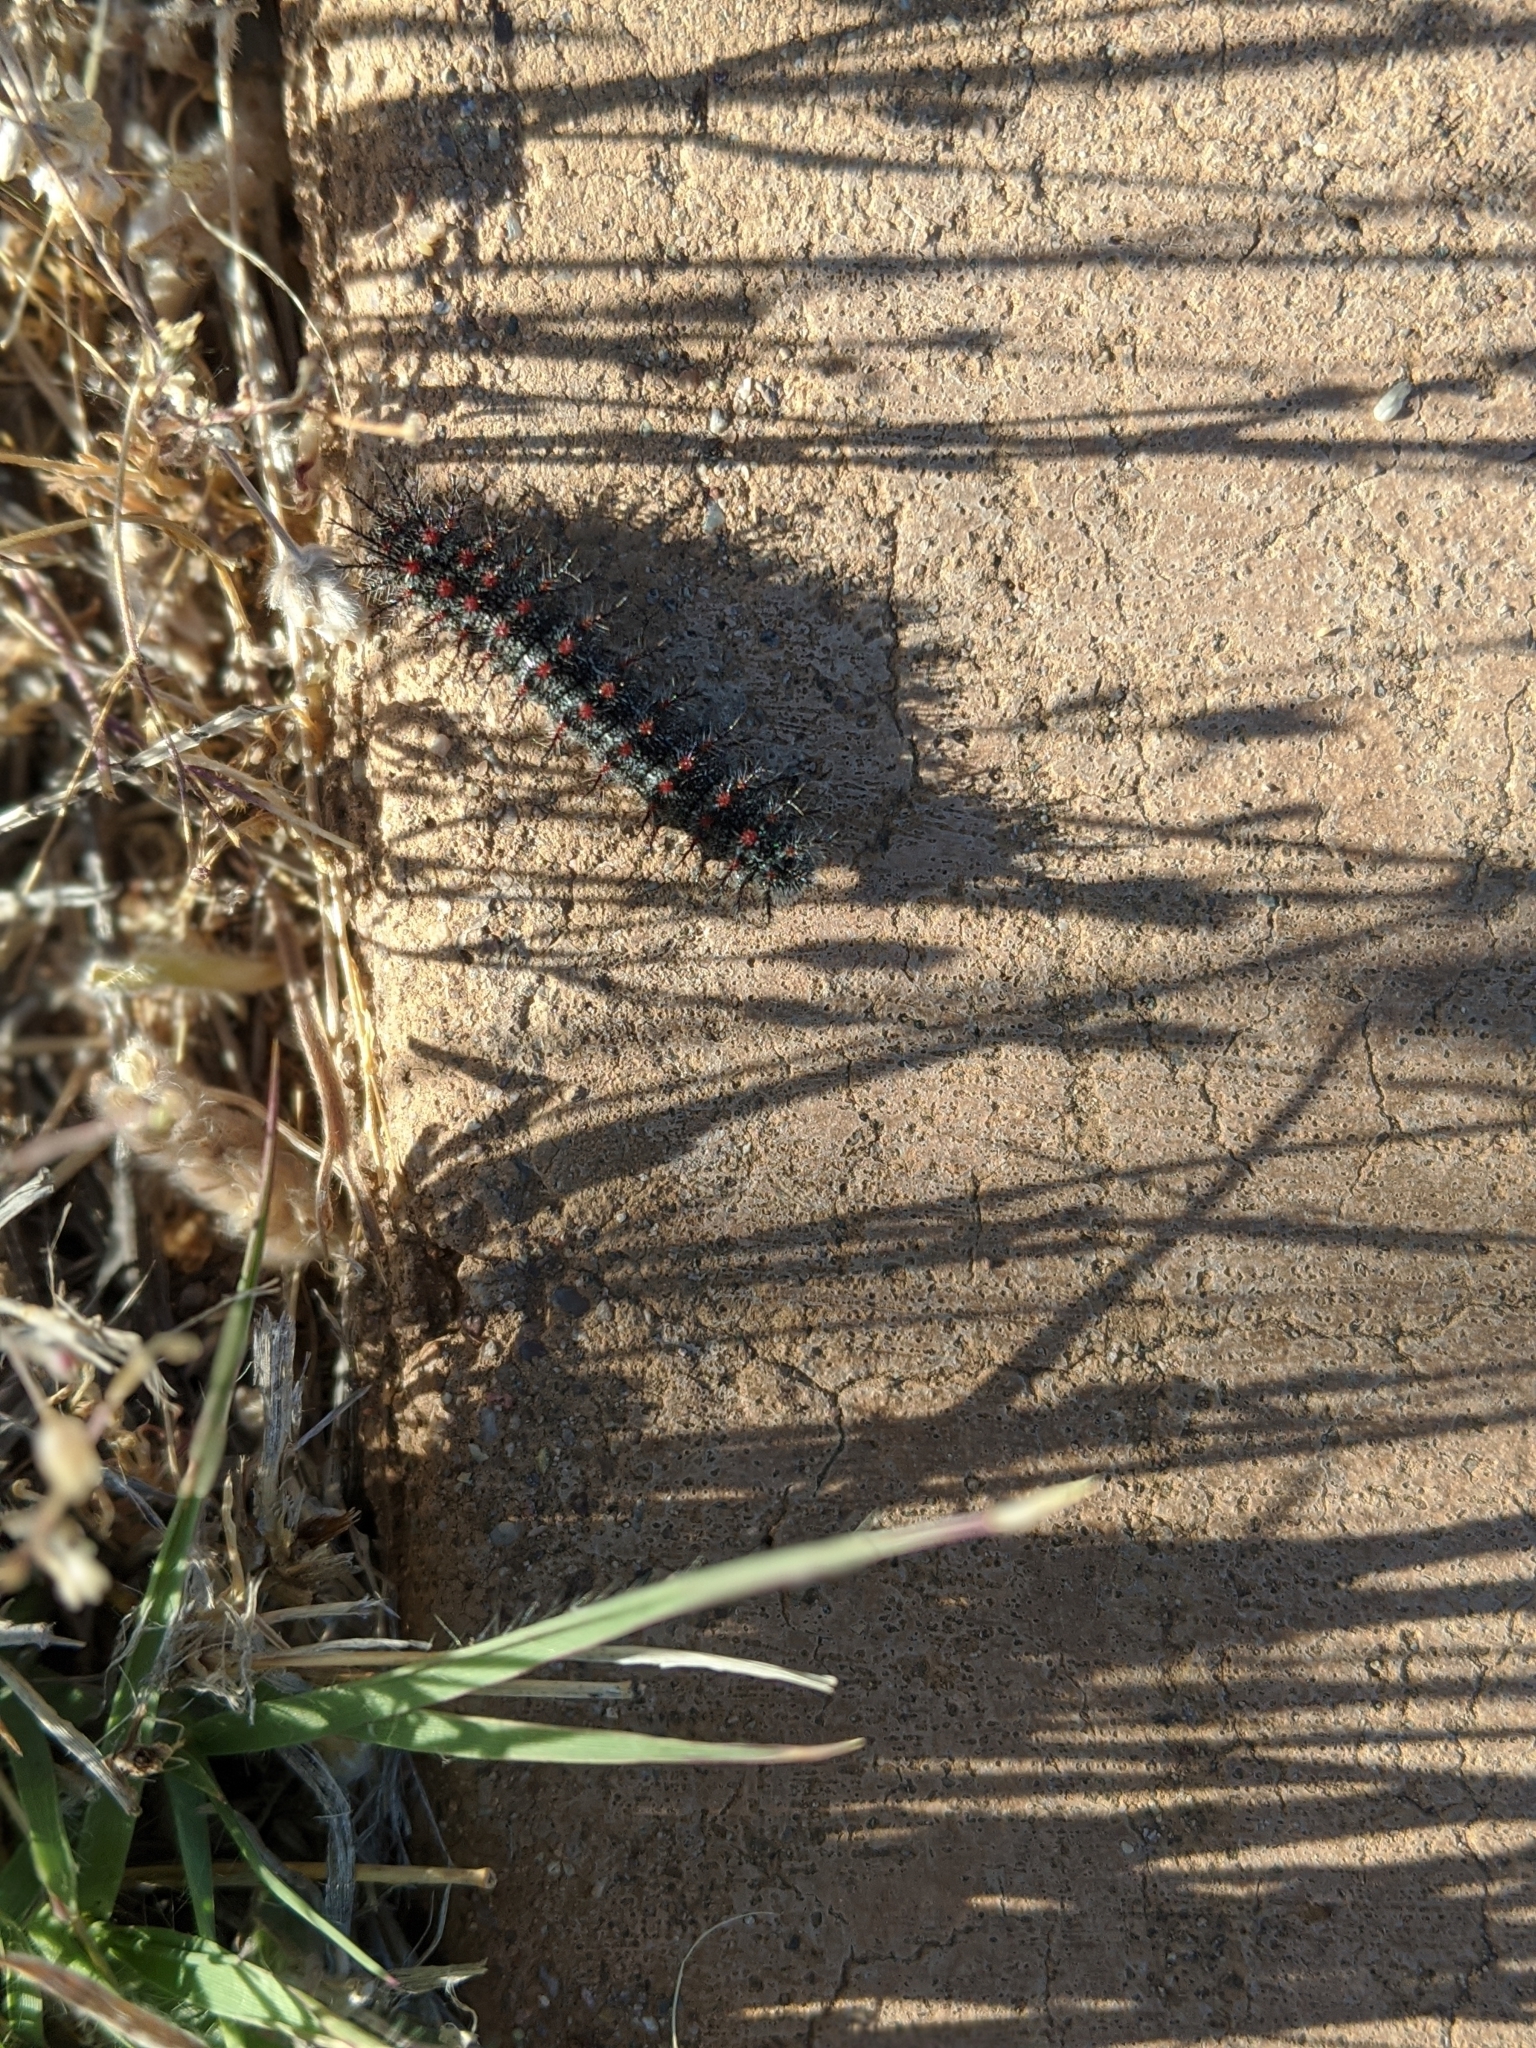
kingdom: Animalia
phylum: Arthropoda
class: Insecta
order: Lepidoptera
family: Saturniidae
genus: Hemileuca
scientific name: Hemileuca juno
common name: Juno buckmoth
